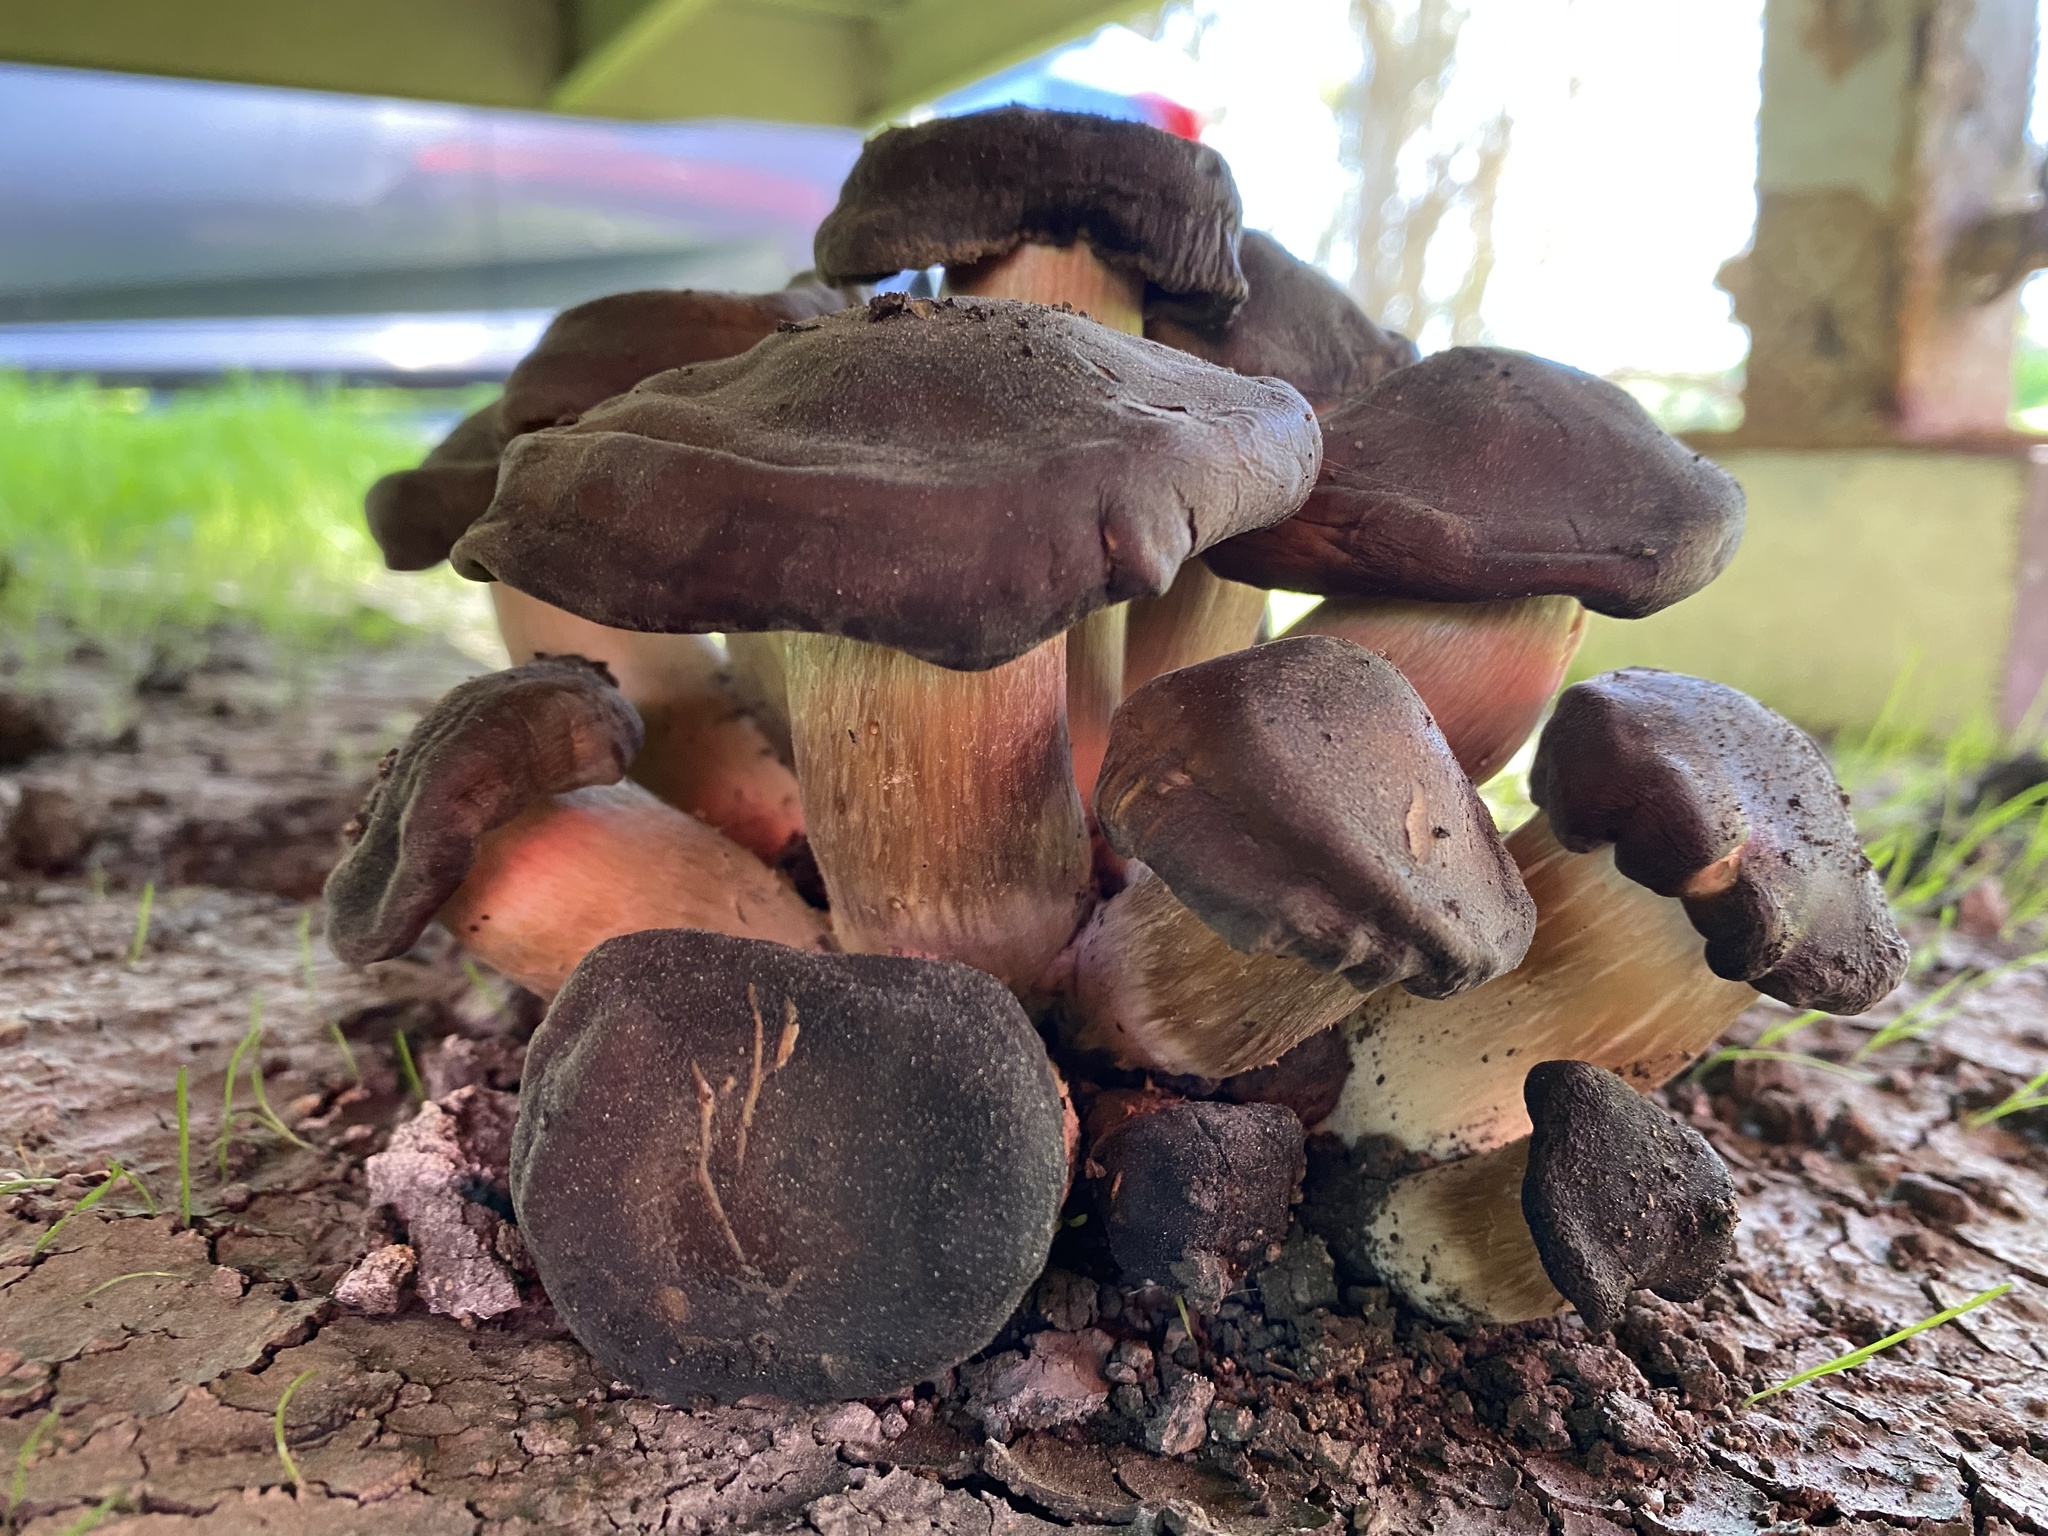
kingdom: Fungi
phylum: Basidiomycota
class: Agaricomycetes
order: Agaricales
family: Physalacriaceae
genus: Armillaria
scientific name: Armillaria mellea
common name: Honey fungus
